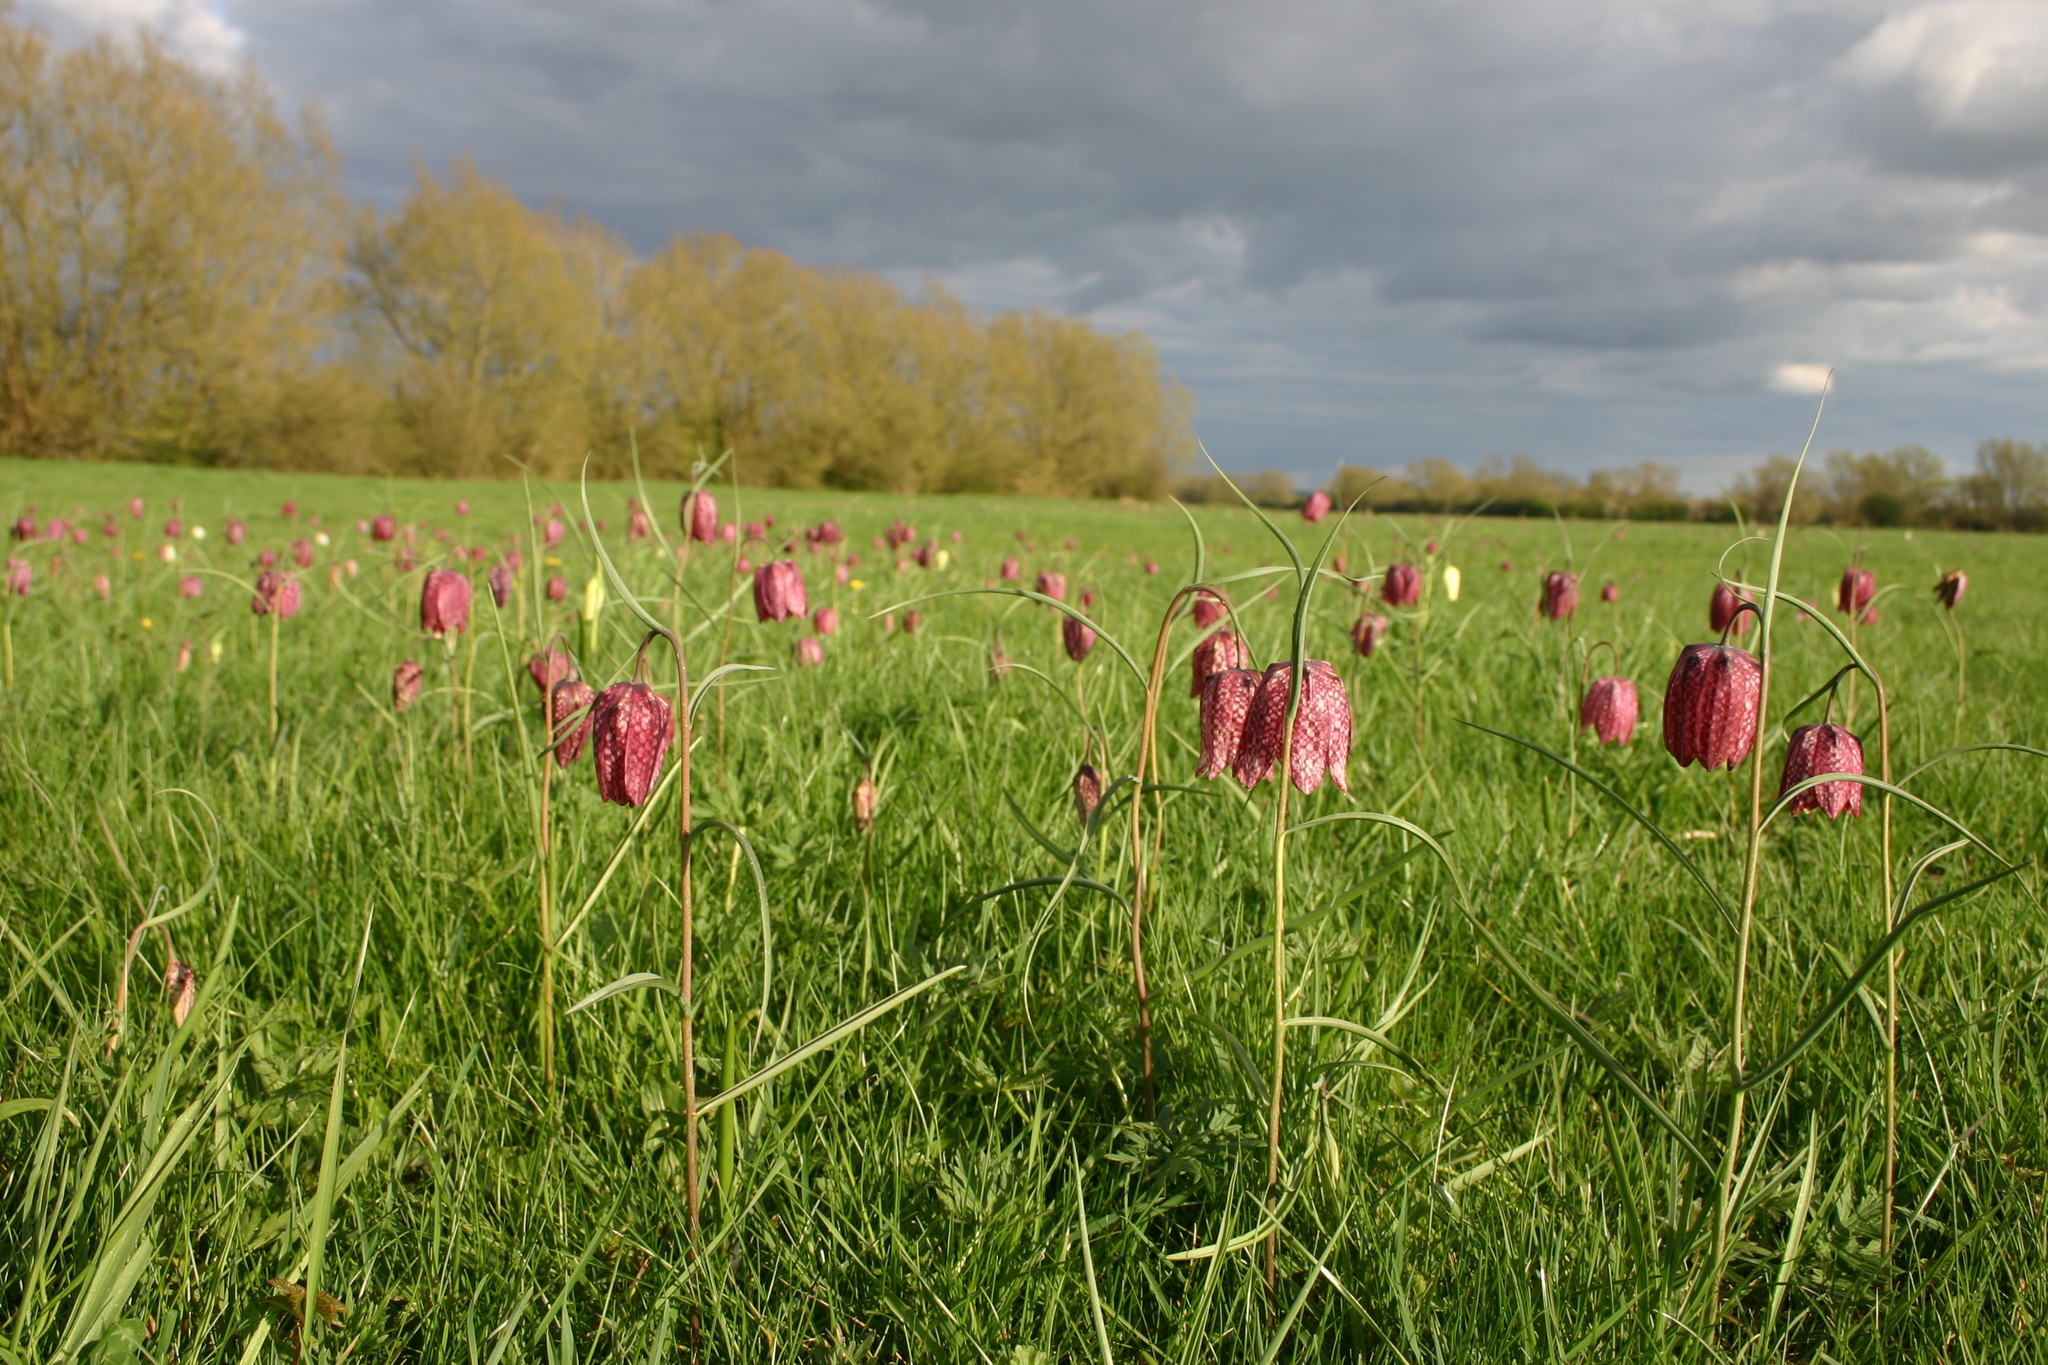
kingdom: Plantae
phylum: Tracheophyta
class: Liliopsida
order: Liliales
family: Liliaceae
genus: Fritillaria
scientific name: Fritillaria meleagris
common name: Fritillary
